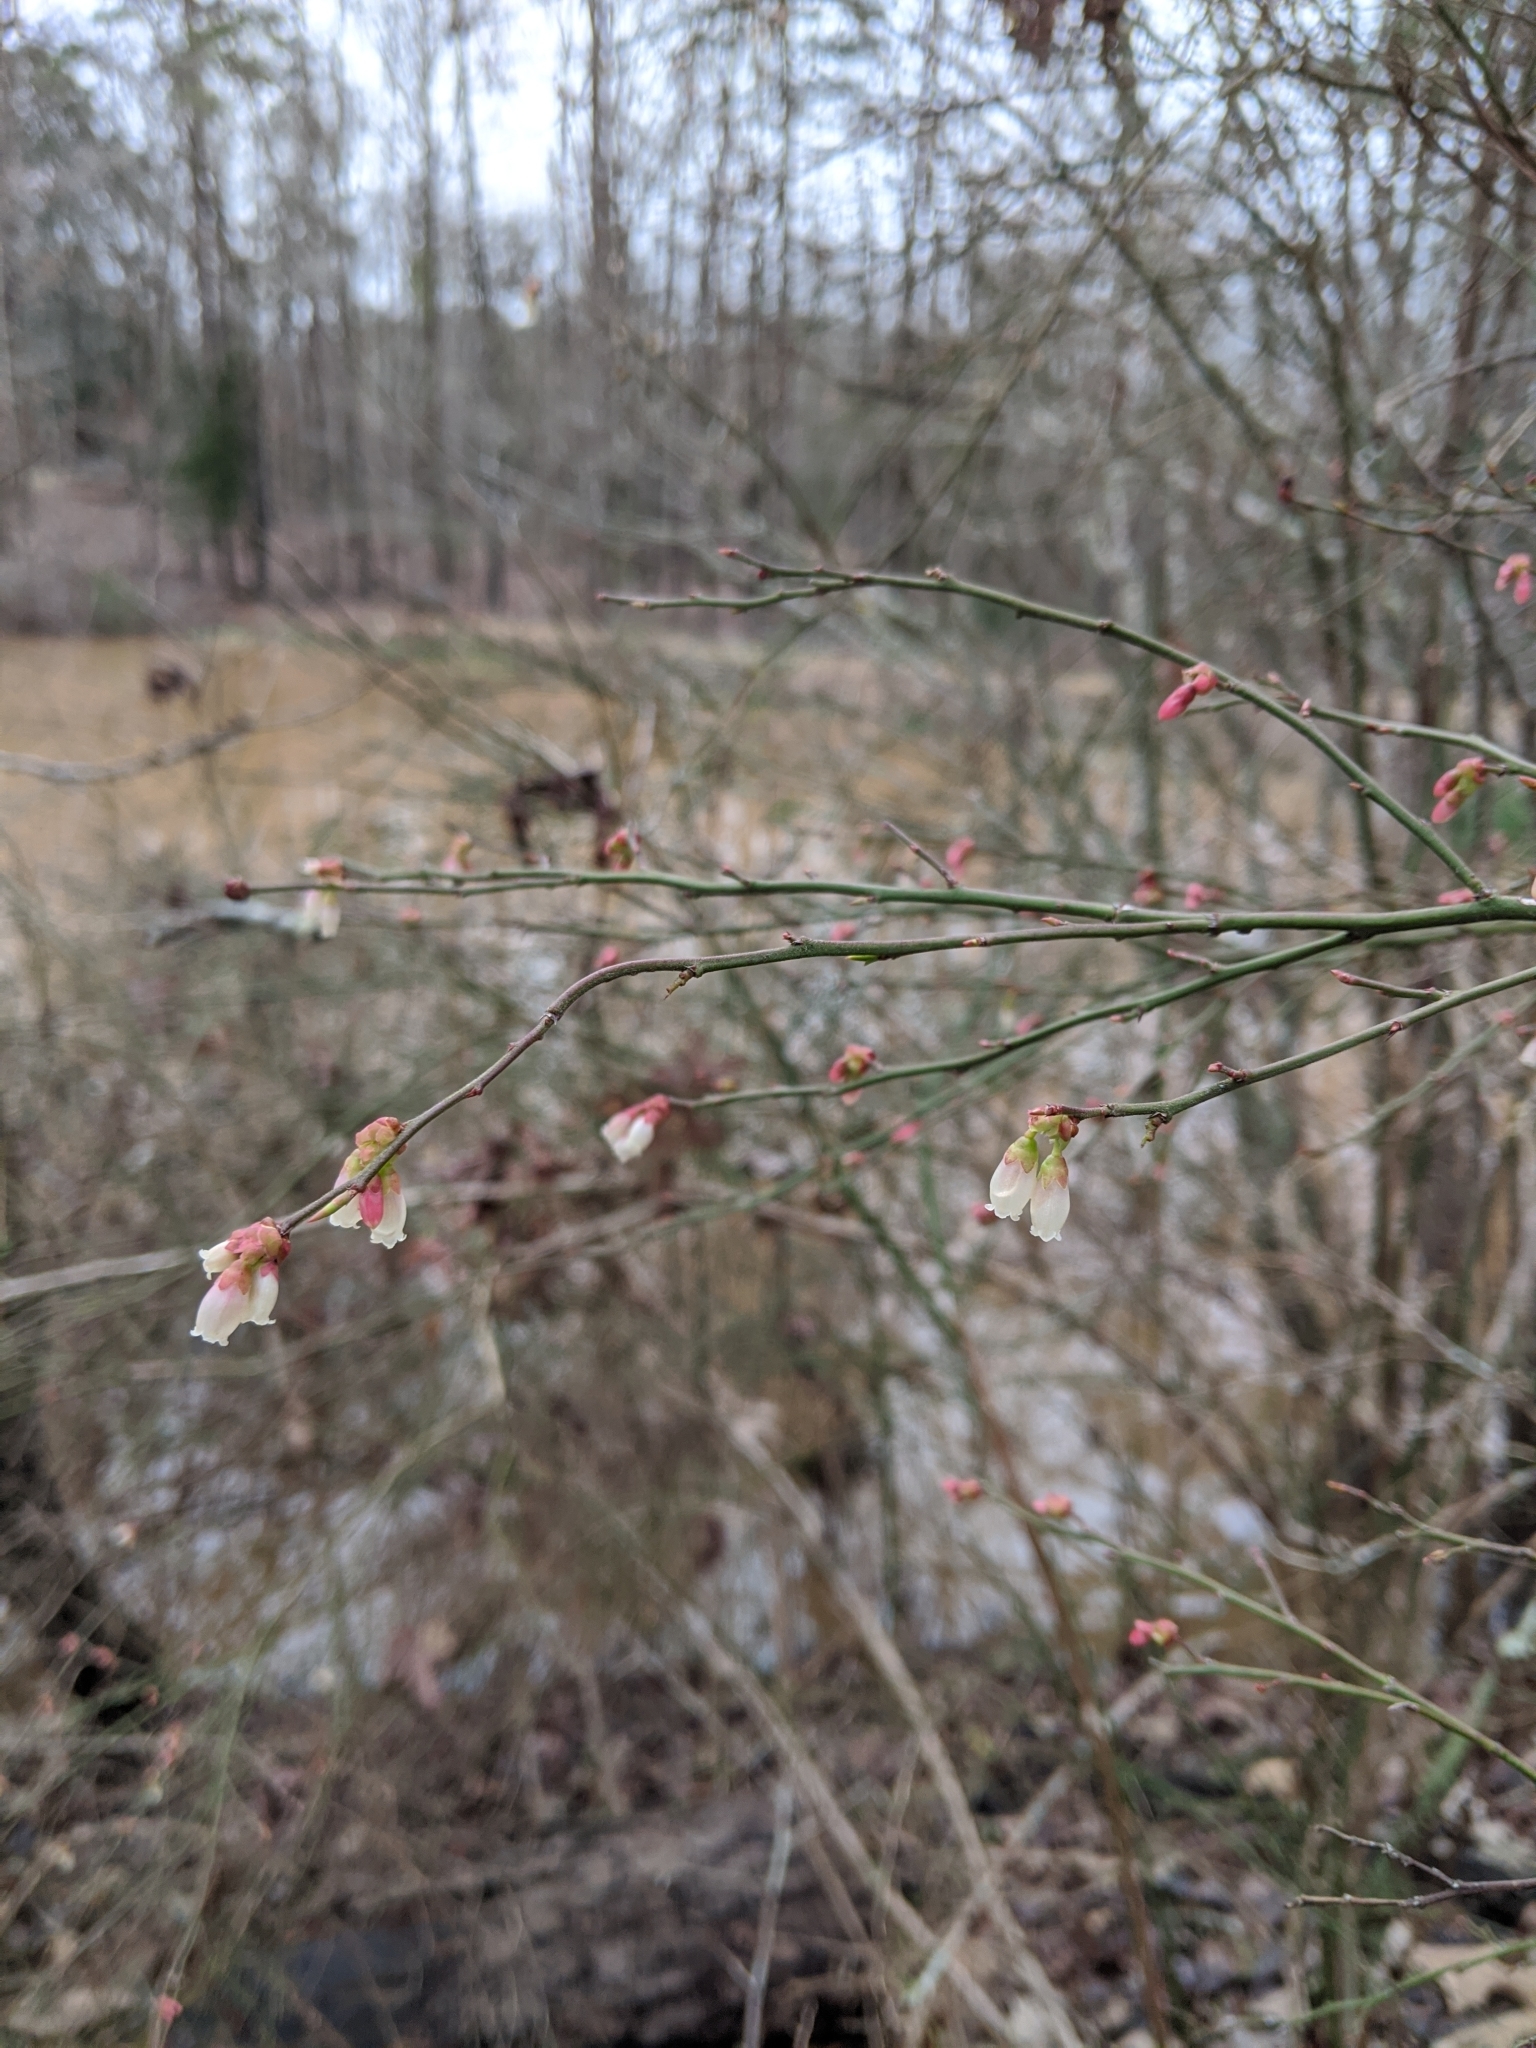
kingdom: Plantae
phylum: Tracheophyta
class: Magnoliopsida
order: Ericales
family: Ericaceae
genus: Vaccinium
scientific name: Vaccinium corymbosum
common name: Blueberry
